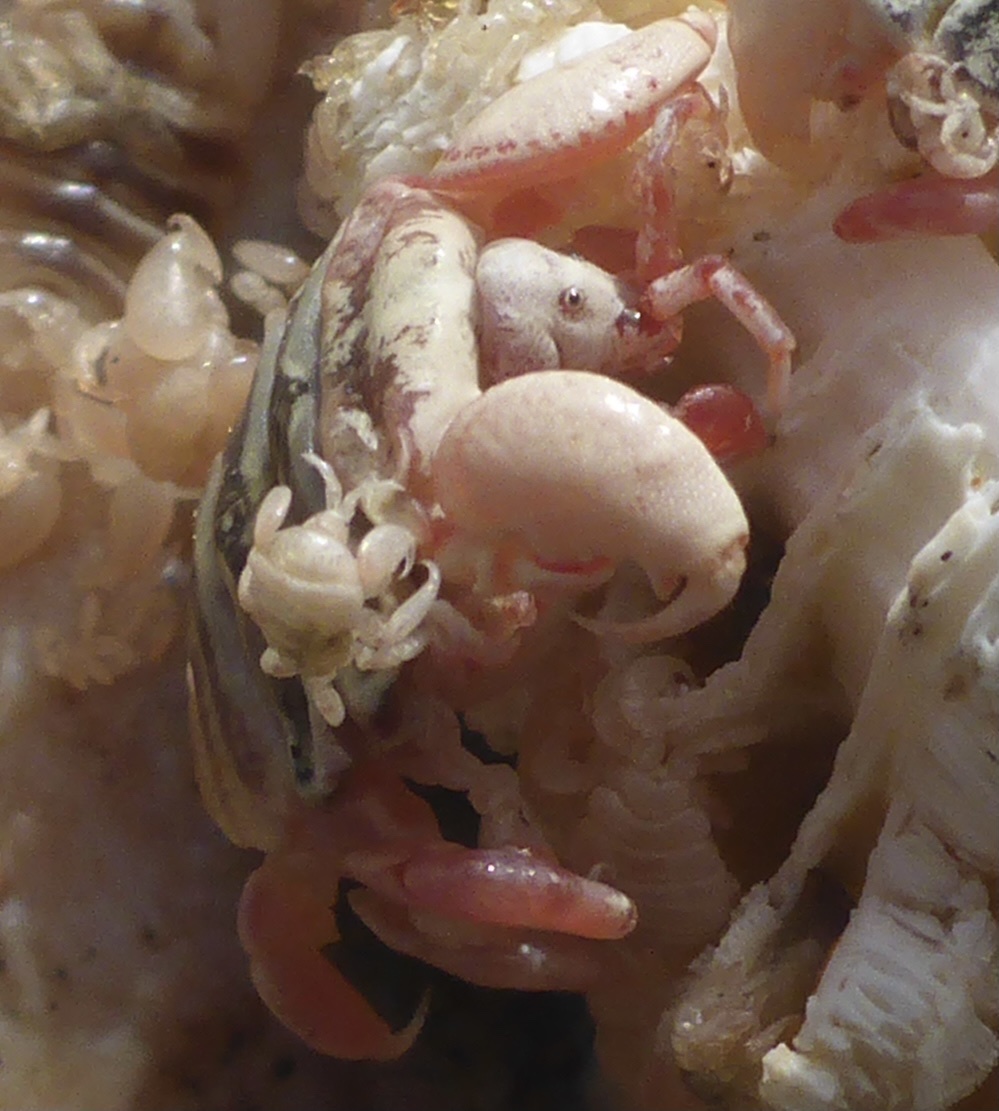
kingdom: Animalia
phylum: Arthropoda
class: Malacostraca
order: Amphipoda
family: Cyamidae
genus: Cyamus
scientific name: Cyamus scammoni
